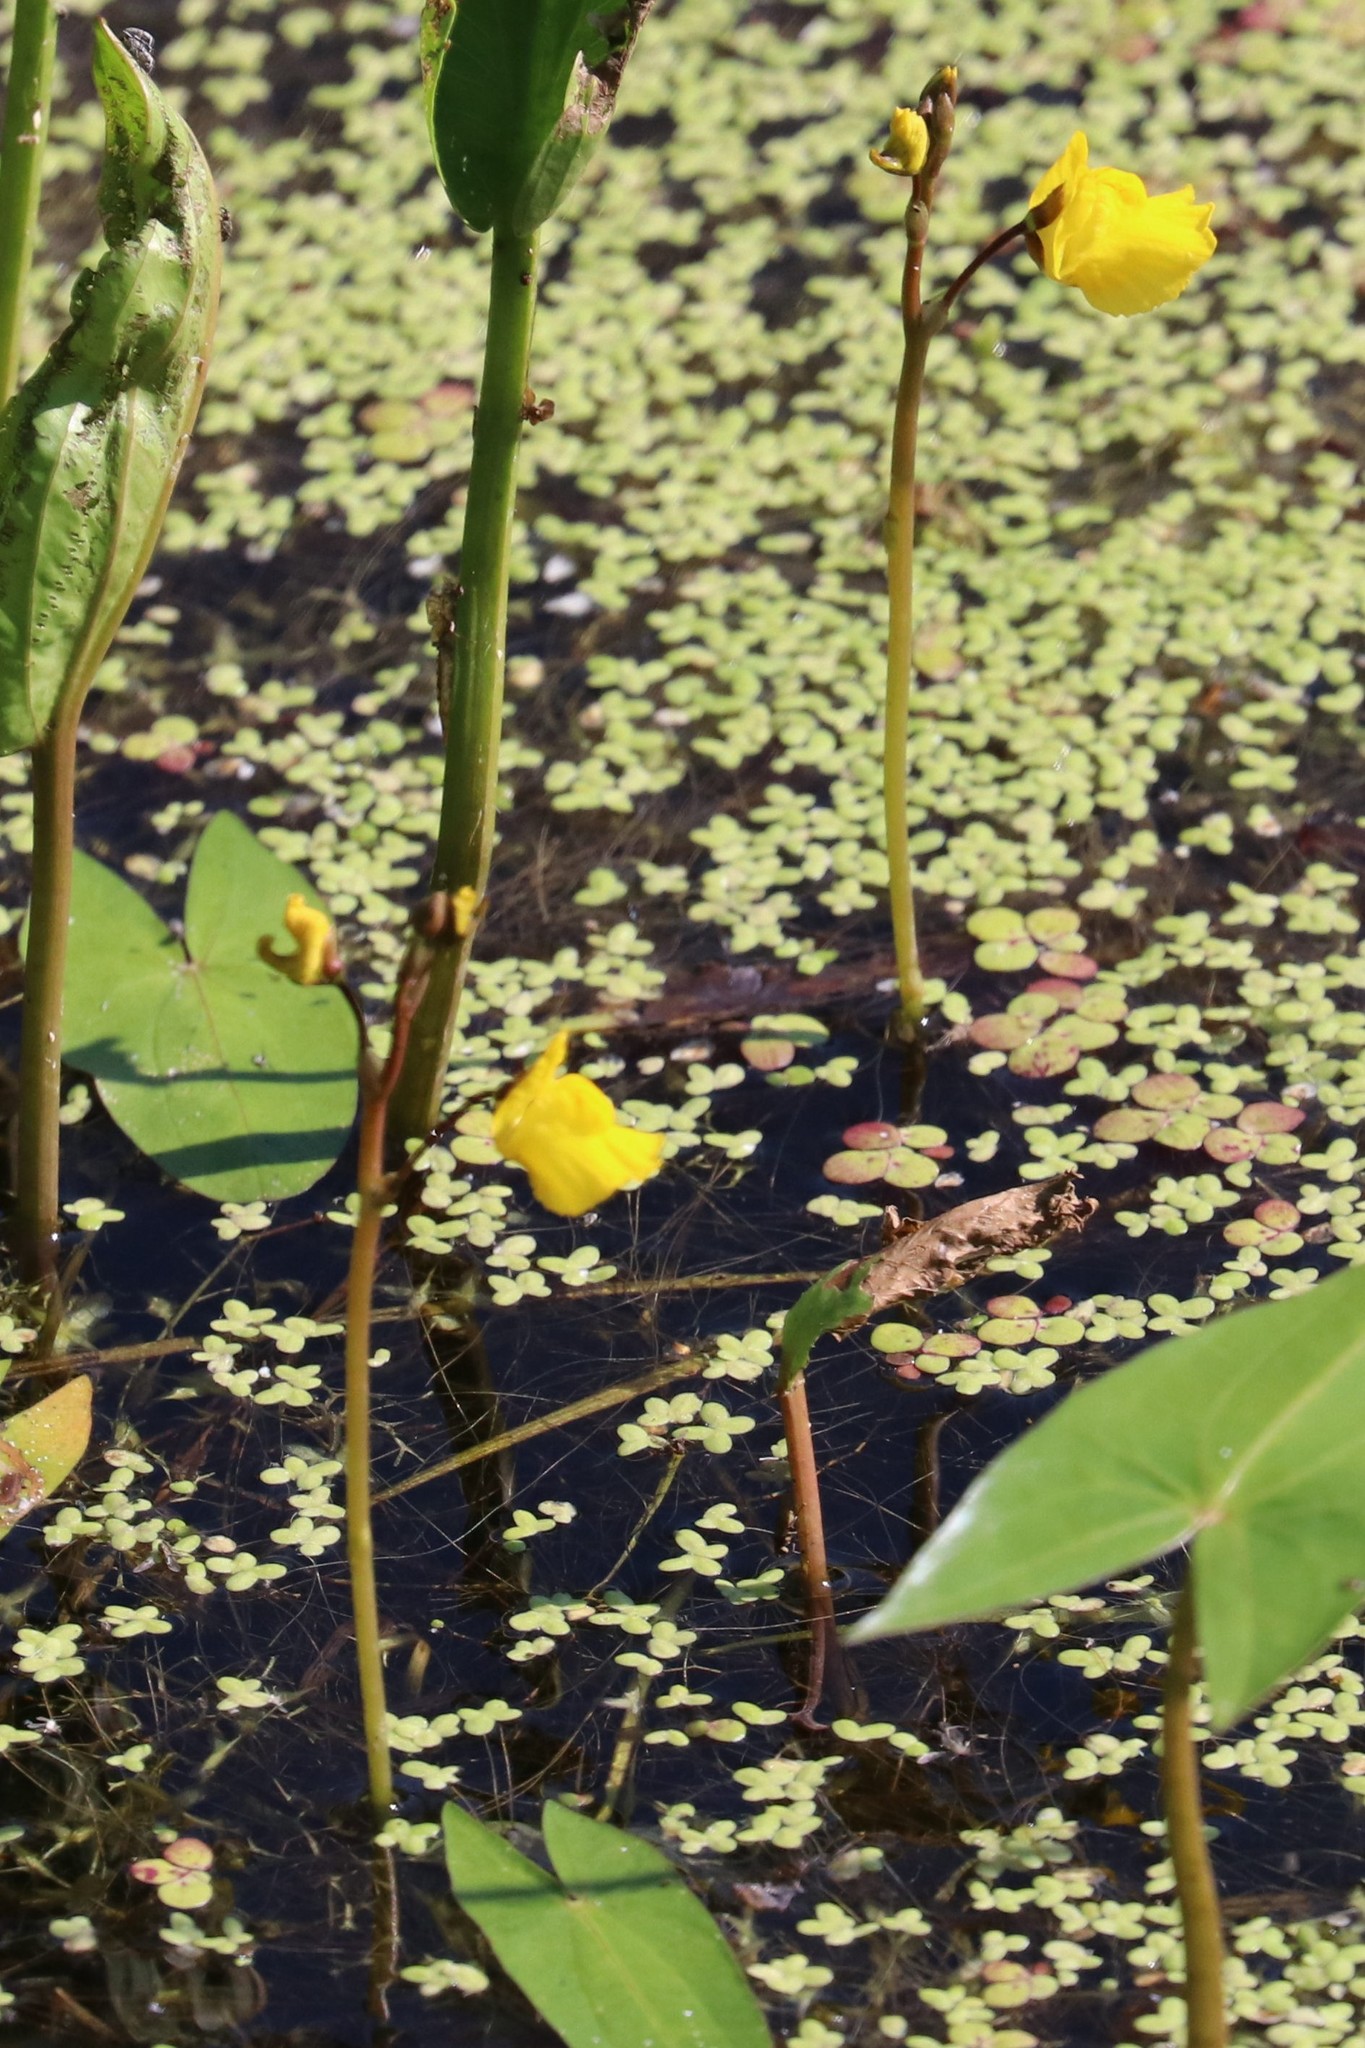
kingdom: Plantae
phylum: Tracheophyta
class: Magnoliopsida
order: Lamiales
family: Lentibulariaceae
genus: Utricularia
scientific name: Utricularia vulgaris
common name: Greater bladderwort
